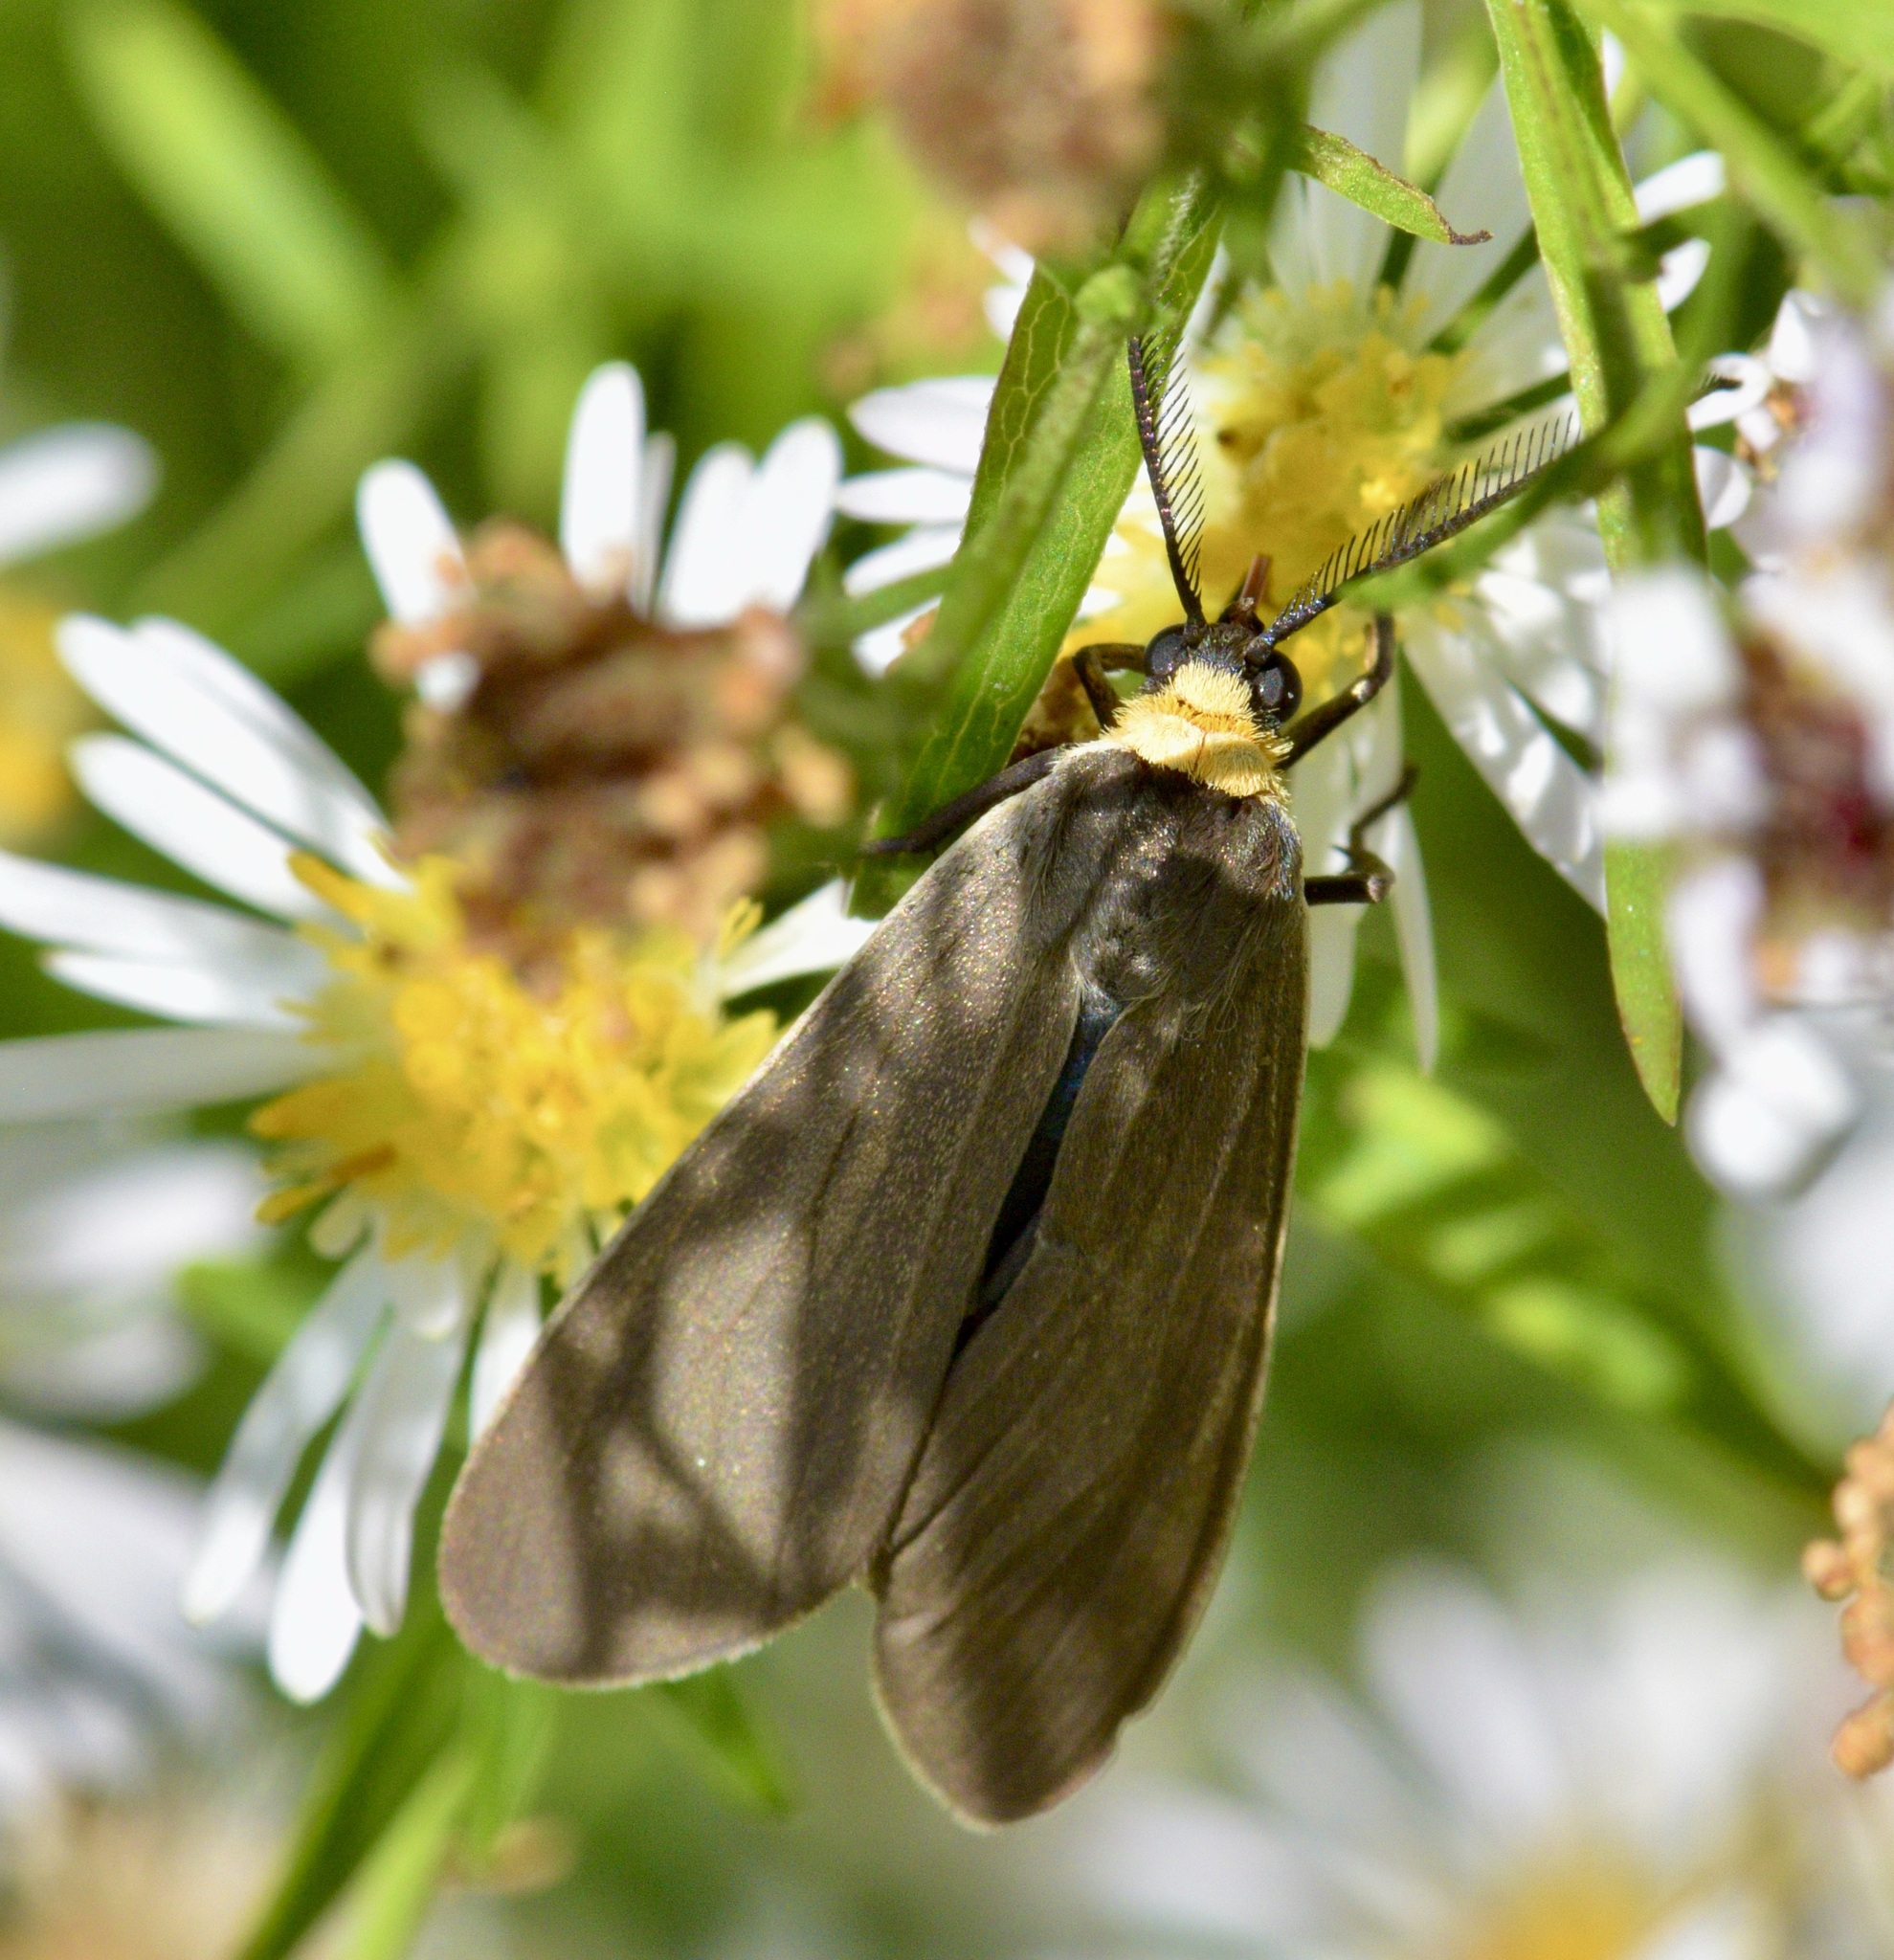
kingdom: Animalia
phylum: Arthropoda
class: Insecta
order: Lepidoptera
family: Erebidae
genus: Cisseps
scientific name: Cisseps fulvicollis
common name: Yellow-collared scape moth
